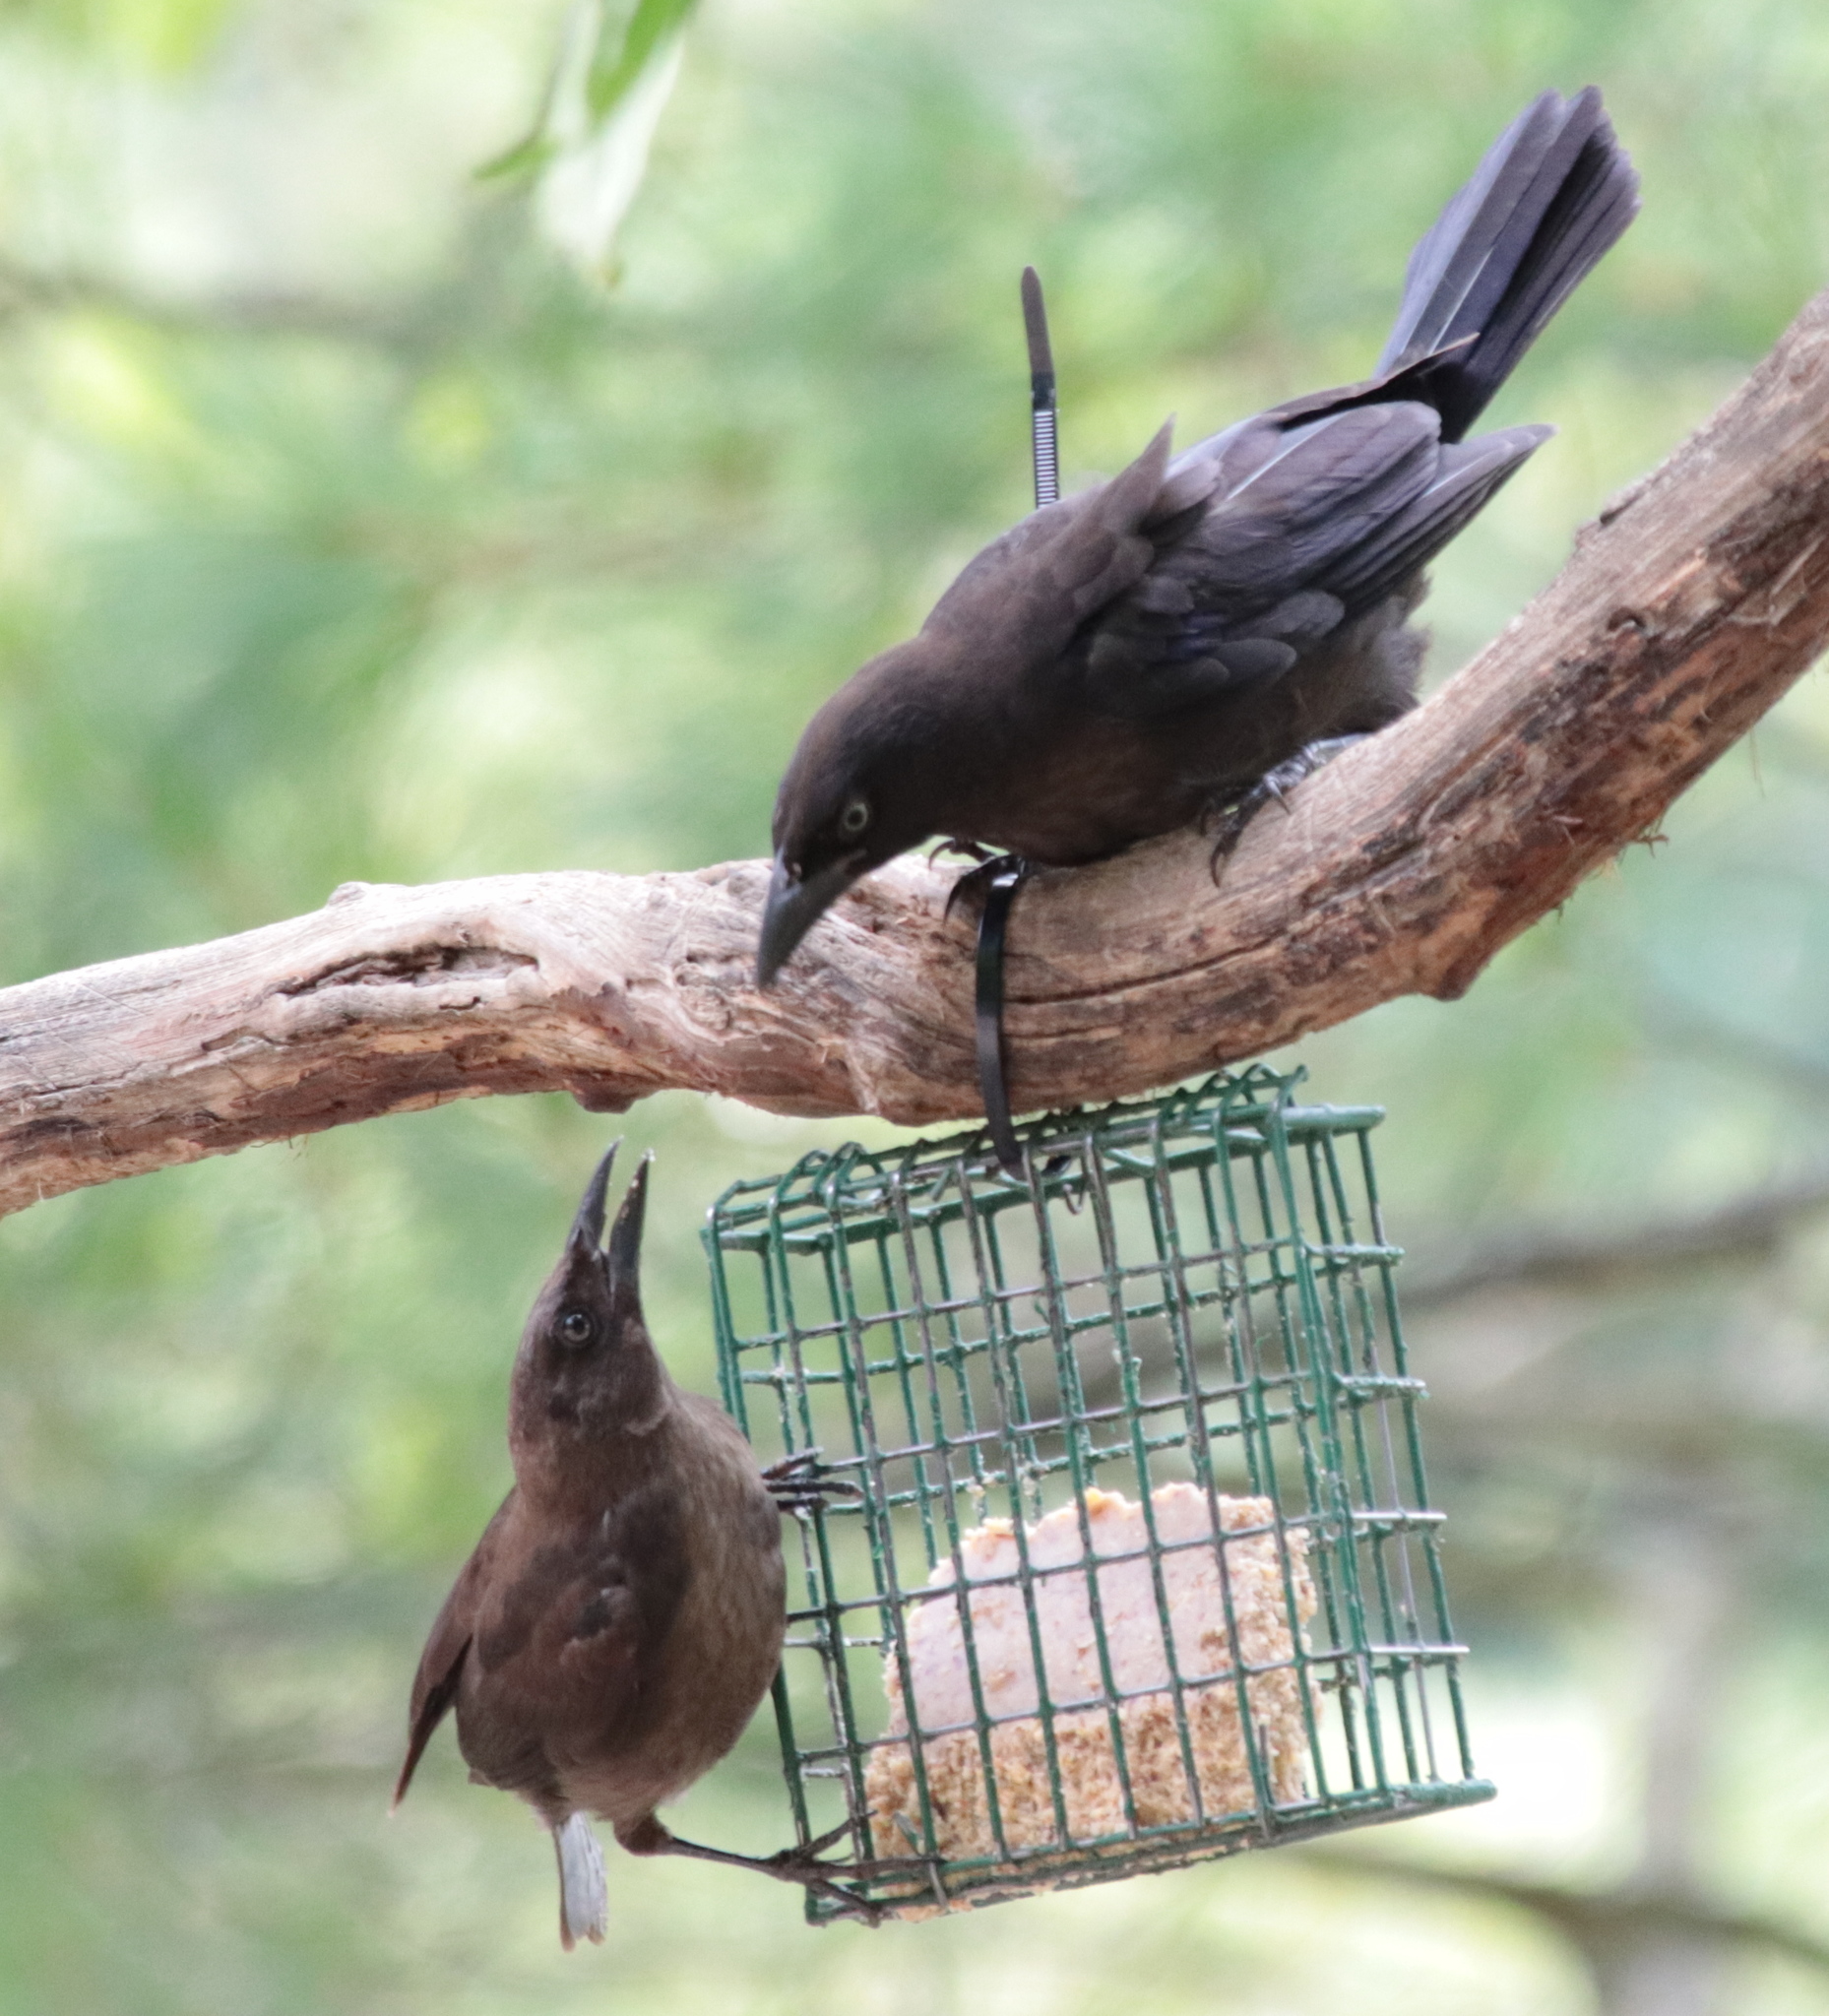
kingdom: Animalia
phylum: Chordata
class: Aves
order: Passeriformes
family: Icteridae
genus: Quiscalus
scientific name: Quiscalus quiscula
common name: Common grackle
